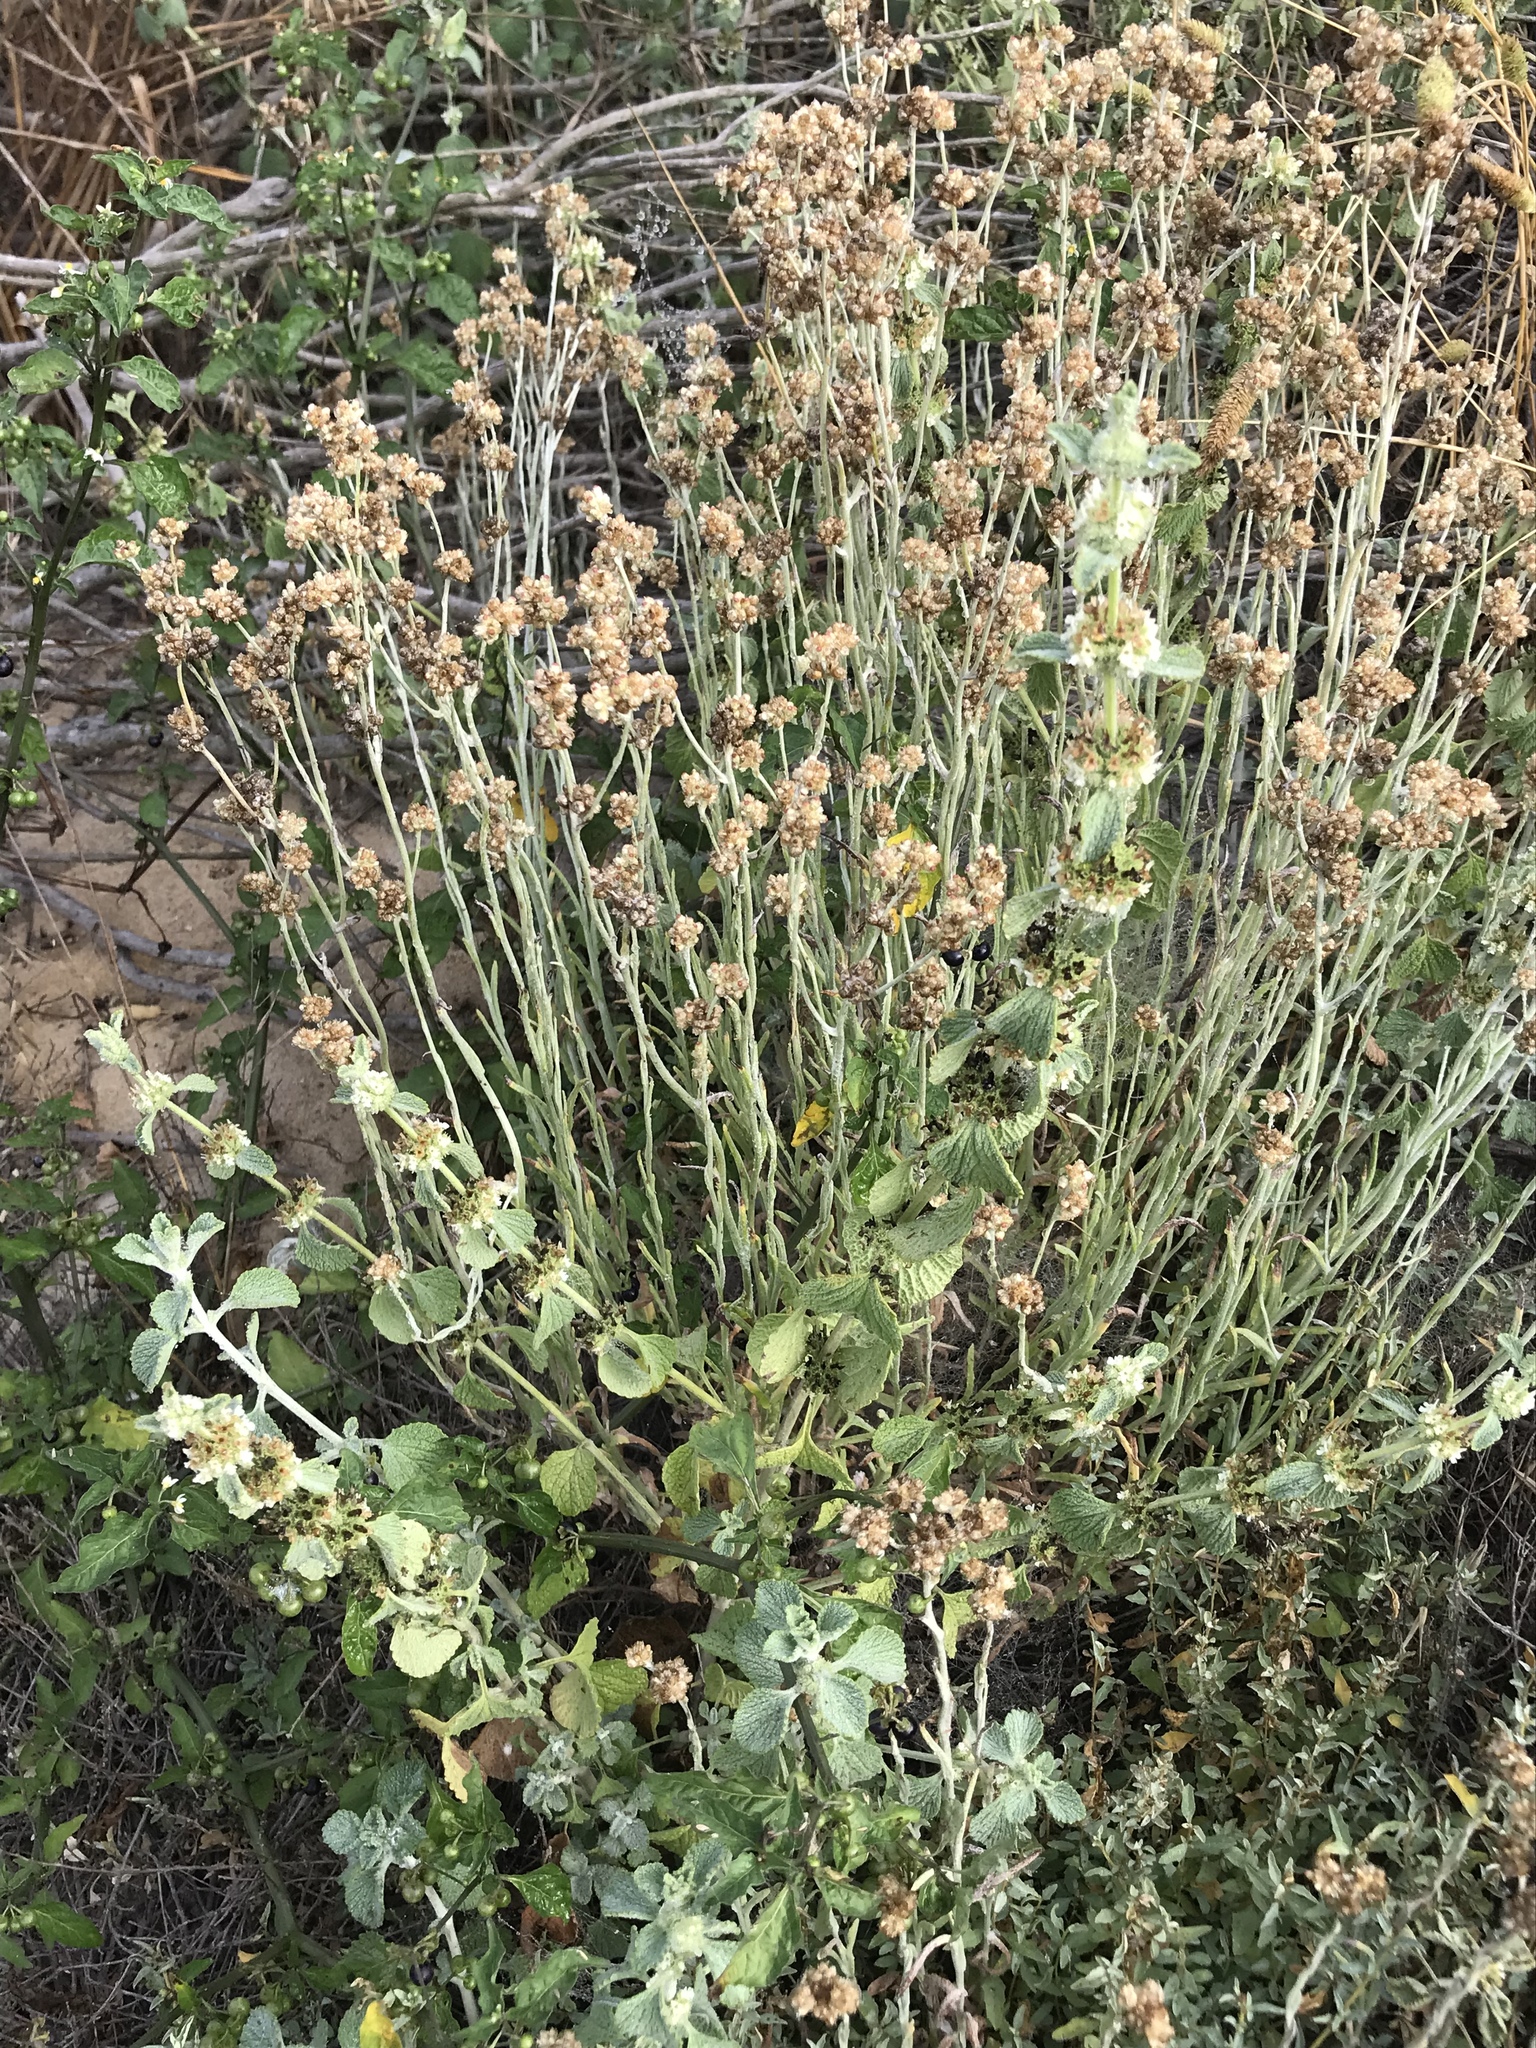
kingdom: Plantae
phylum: Tracheophyta
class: Magnoliopsida
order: Lamiales
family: Lamiaceae
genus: Marrubium
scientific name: Marrubium vulgare
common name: Horehound
